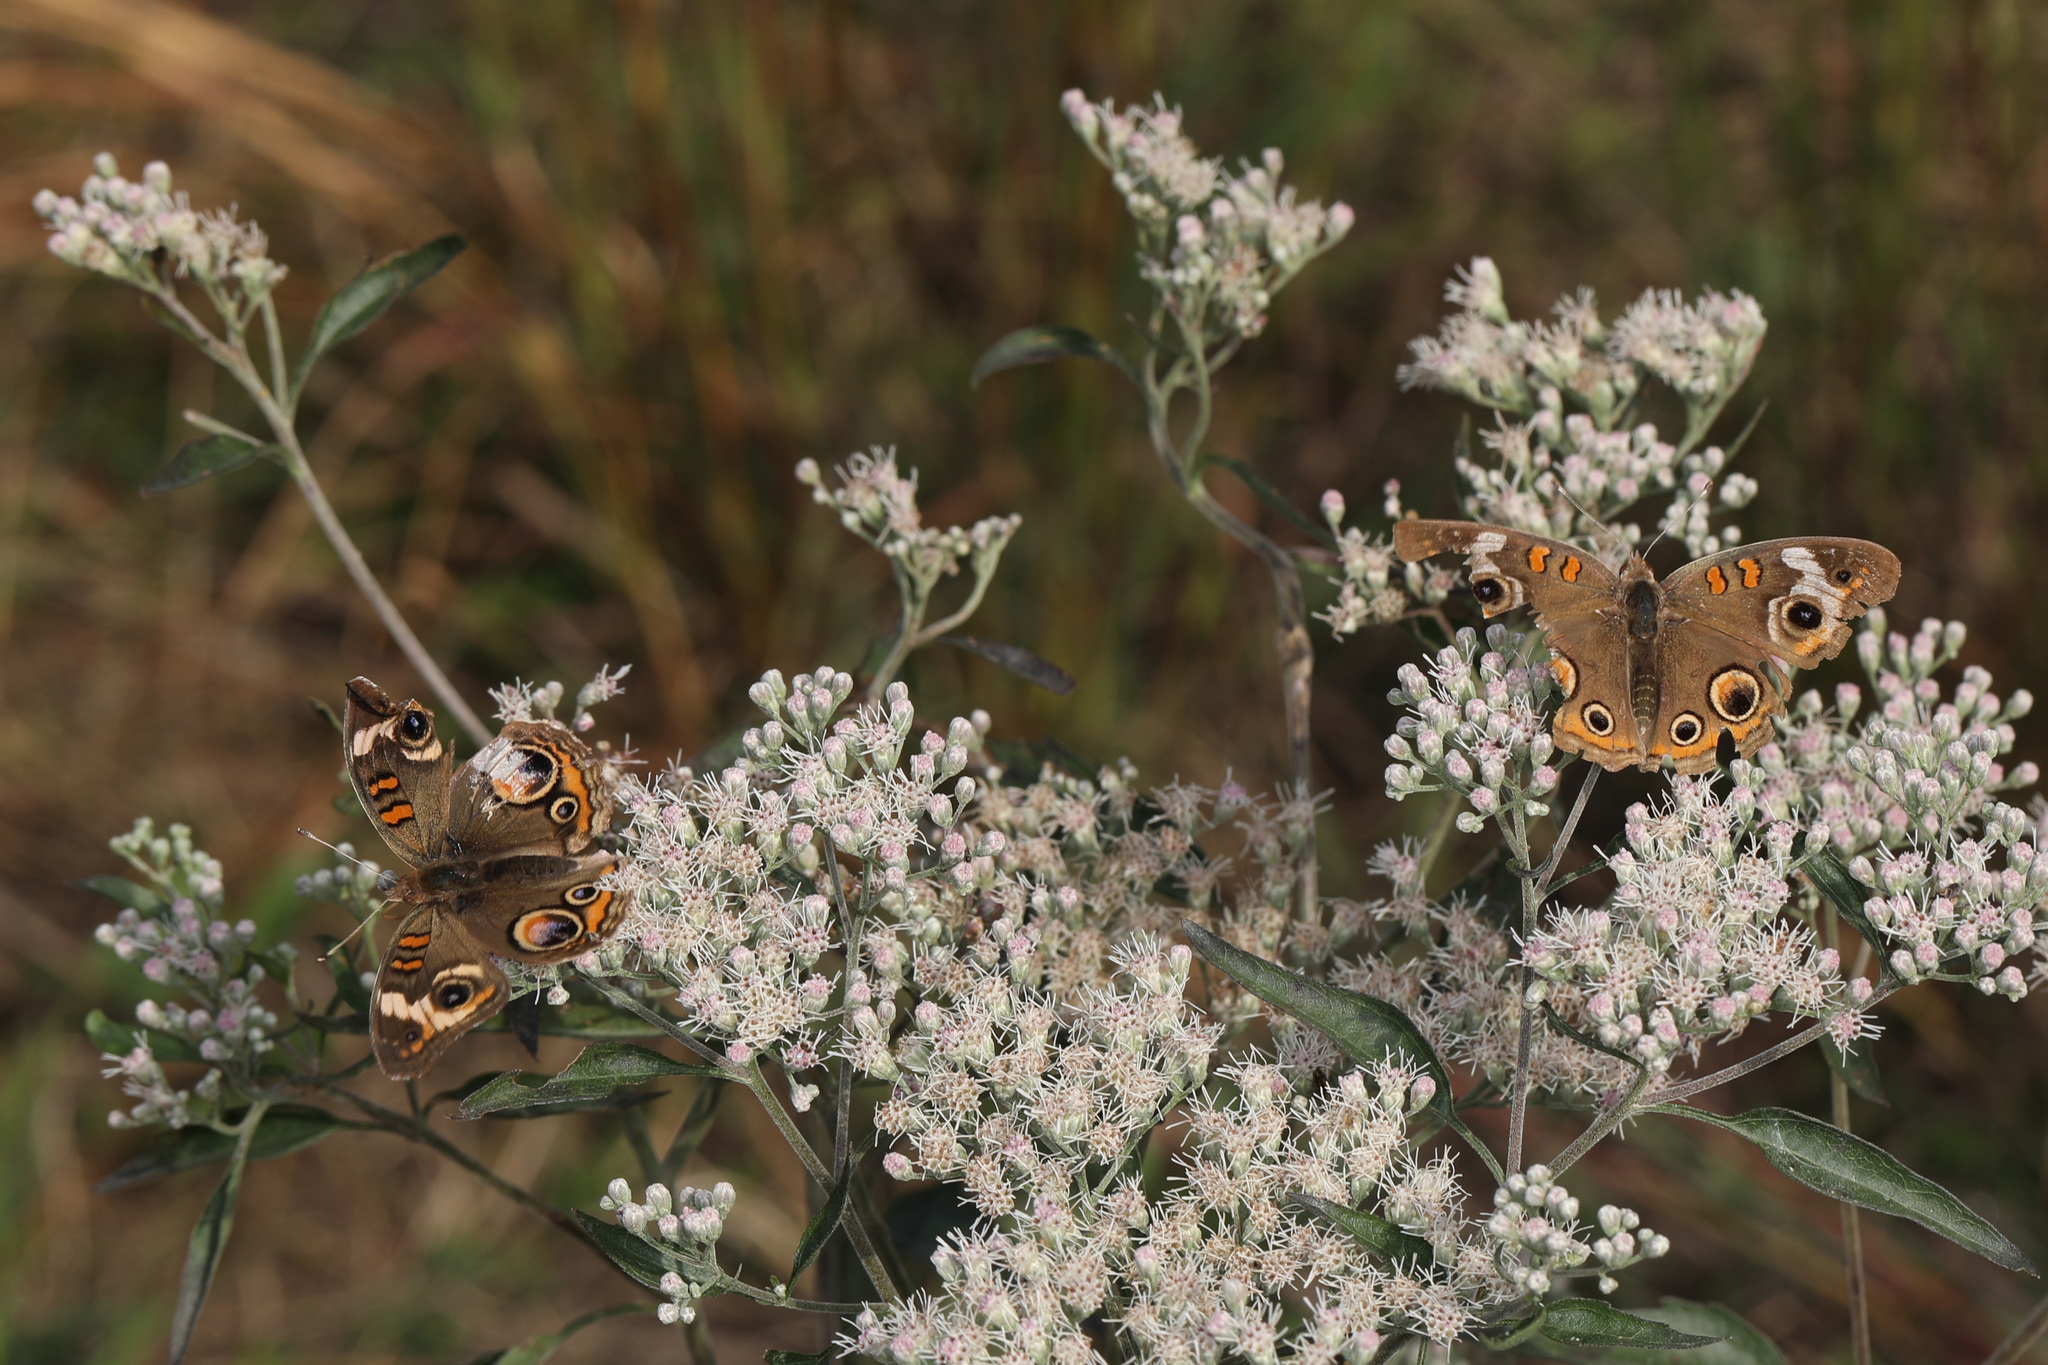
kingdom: Animalia
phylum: Arthropoda
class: Insecta
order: Lepidoptera
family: Nymphalidae
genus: Junonia
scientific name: Junonia coenia
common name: Common buckeye
